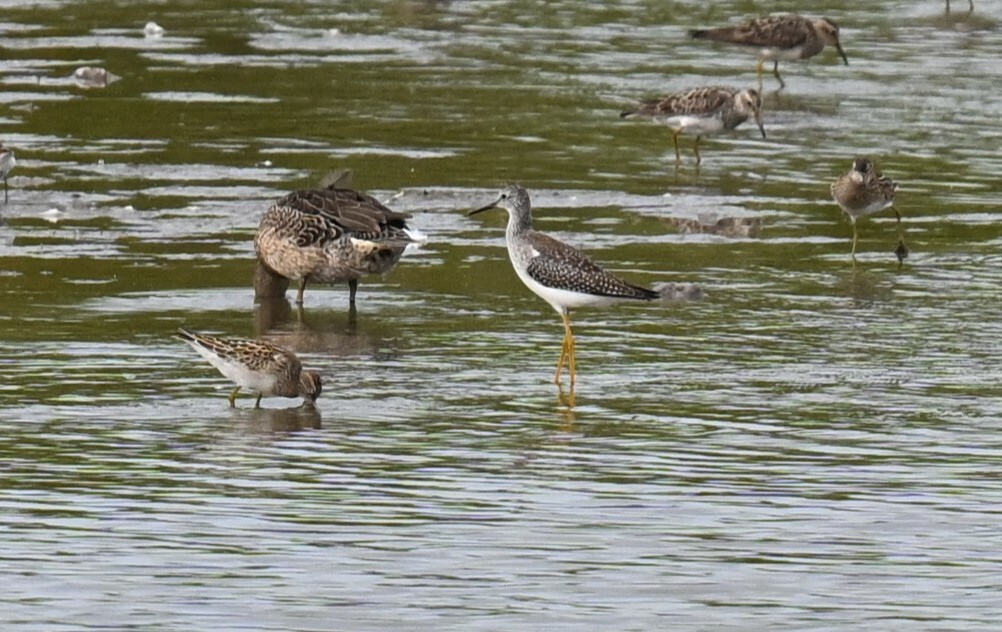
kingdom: Animalia
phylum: Chordata
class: Aves
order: Charadriiformes
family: Scolopacidae
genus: Tringa
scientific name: Tringa flavipes
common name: Lesser yellowlegs
